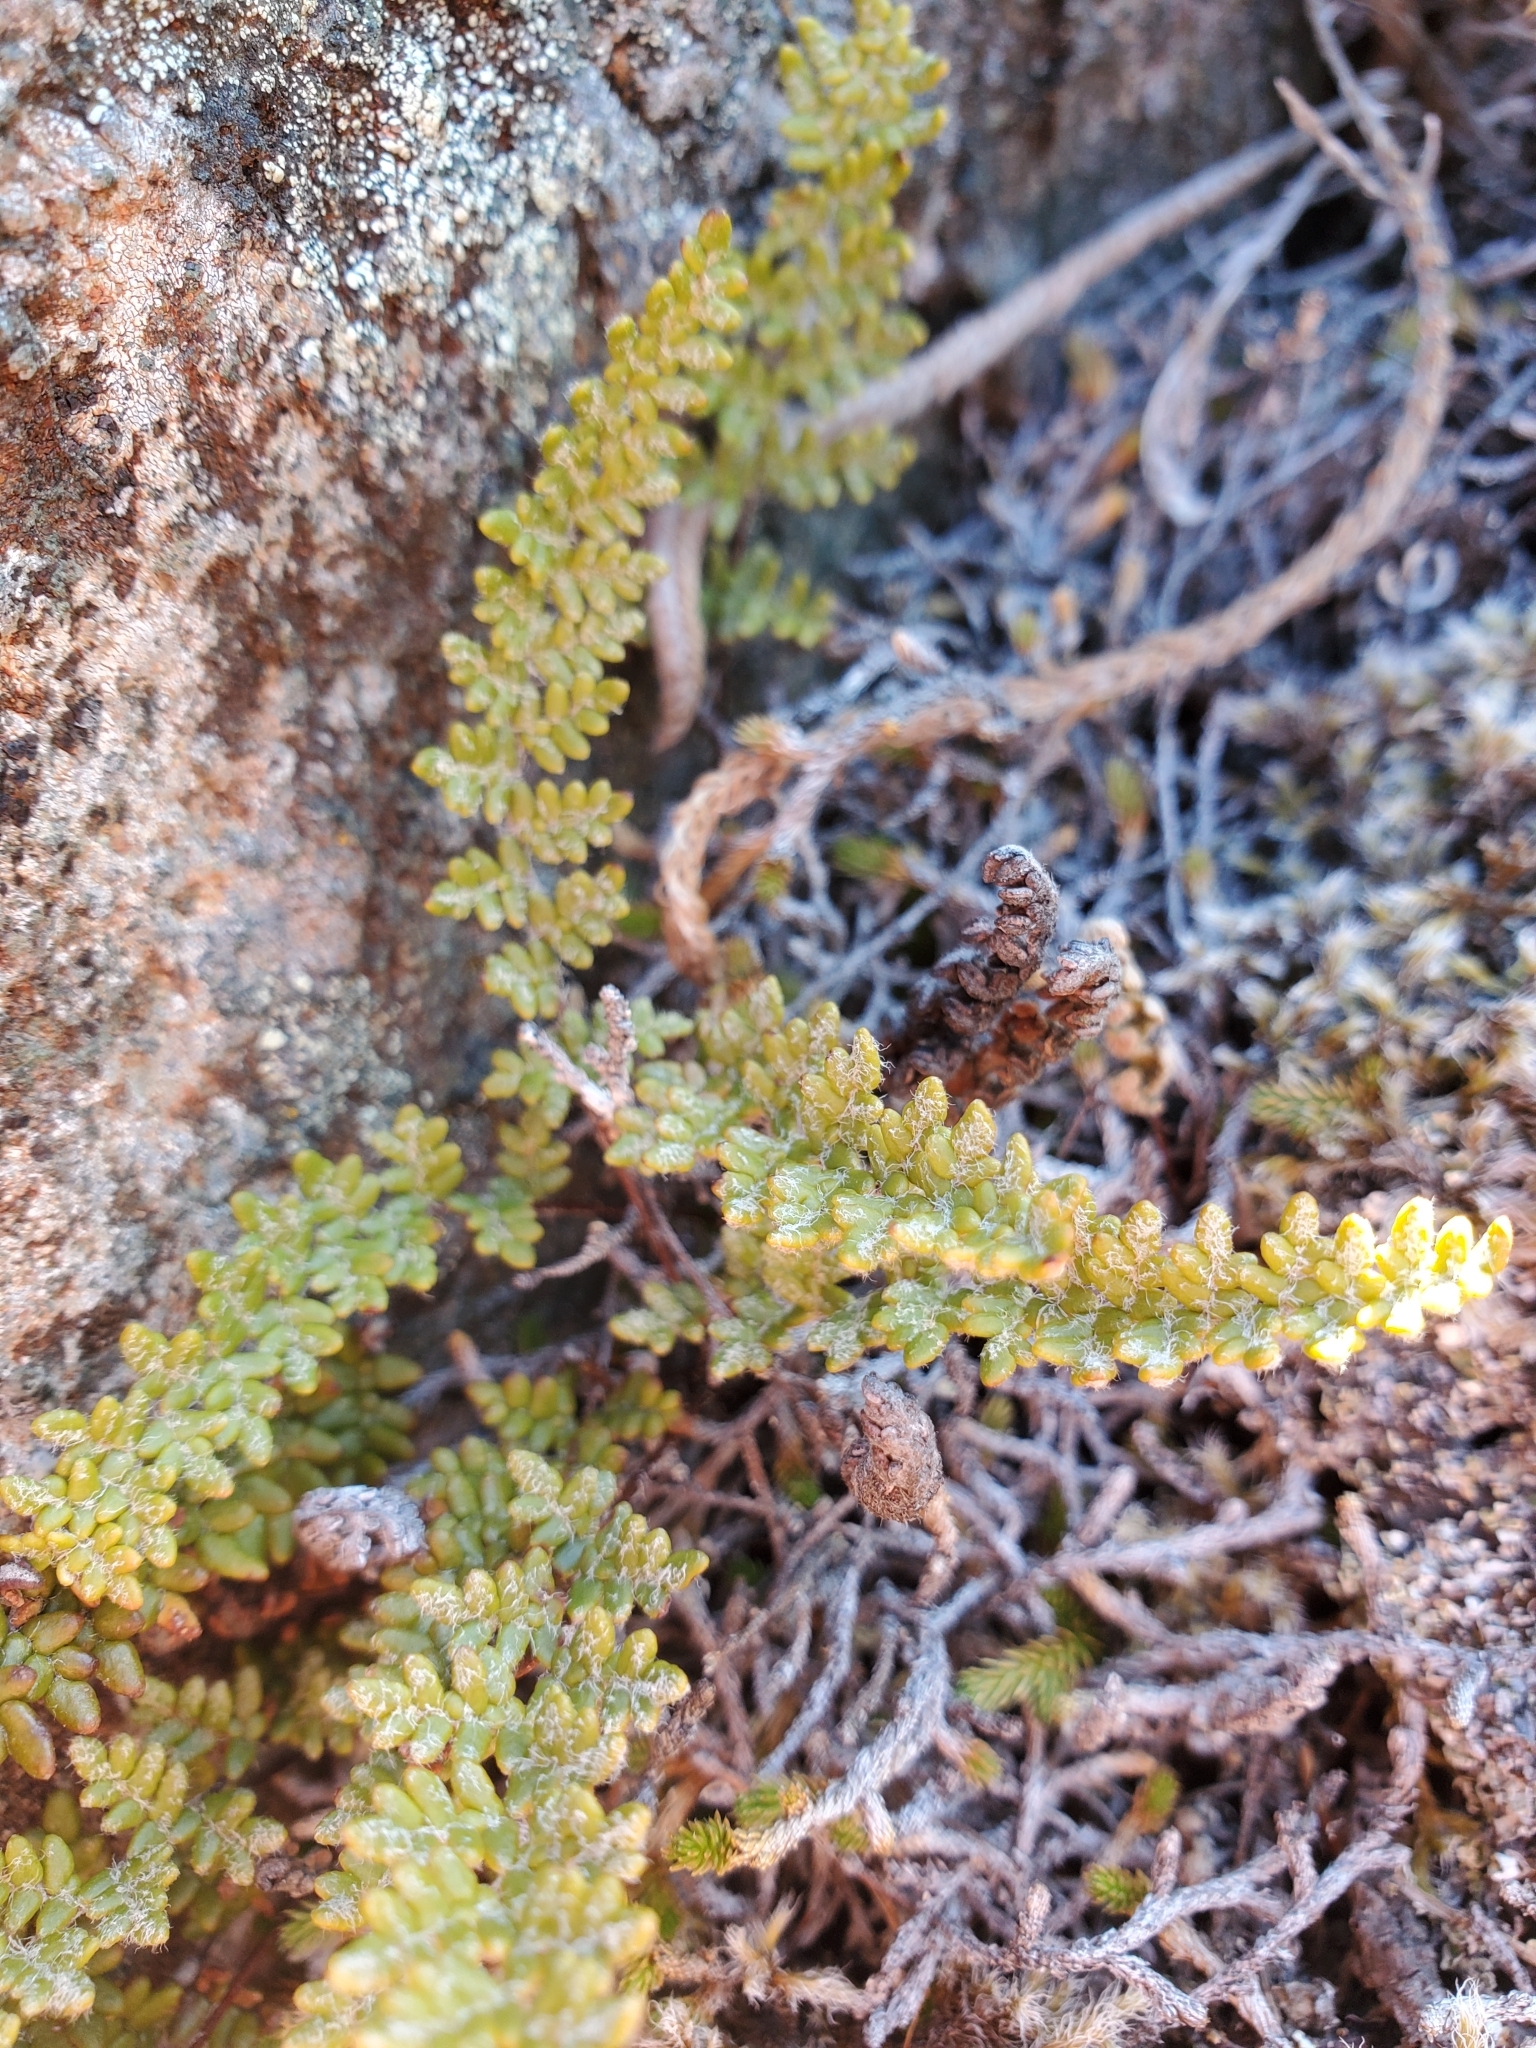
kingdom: Plantae
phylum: Tracheophyta
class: Polypodiopsida
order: Polypodiales
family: Pteridaceae
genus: Myriopteris
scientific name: Myriopteris gracillima
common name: Lace fern
